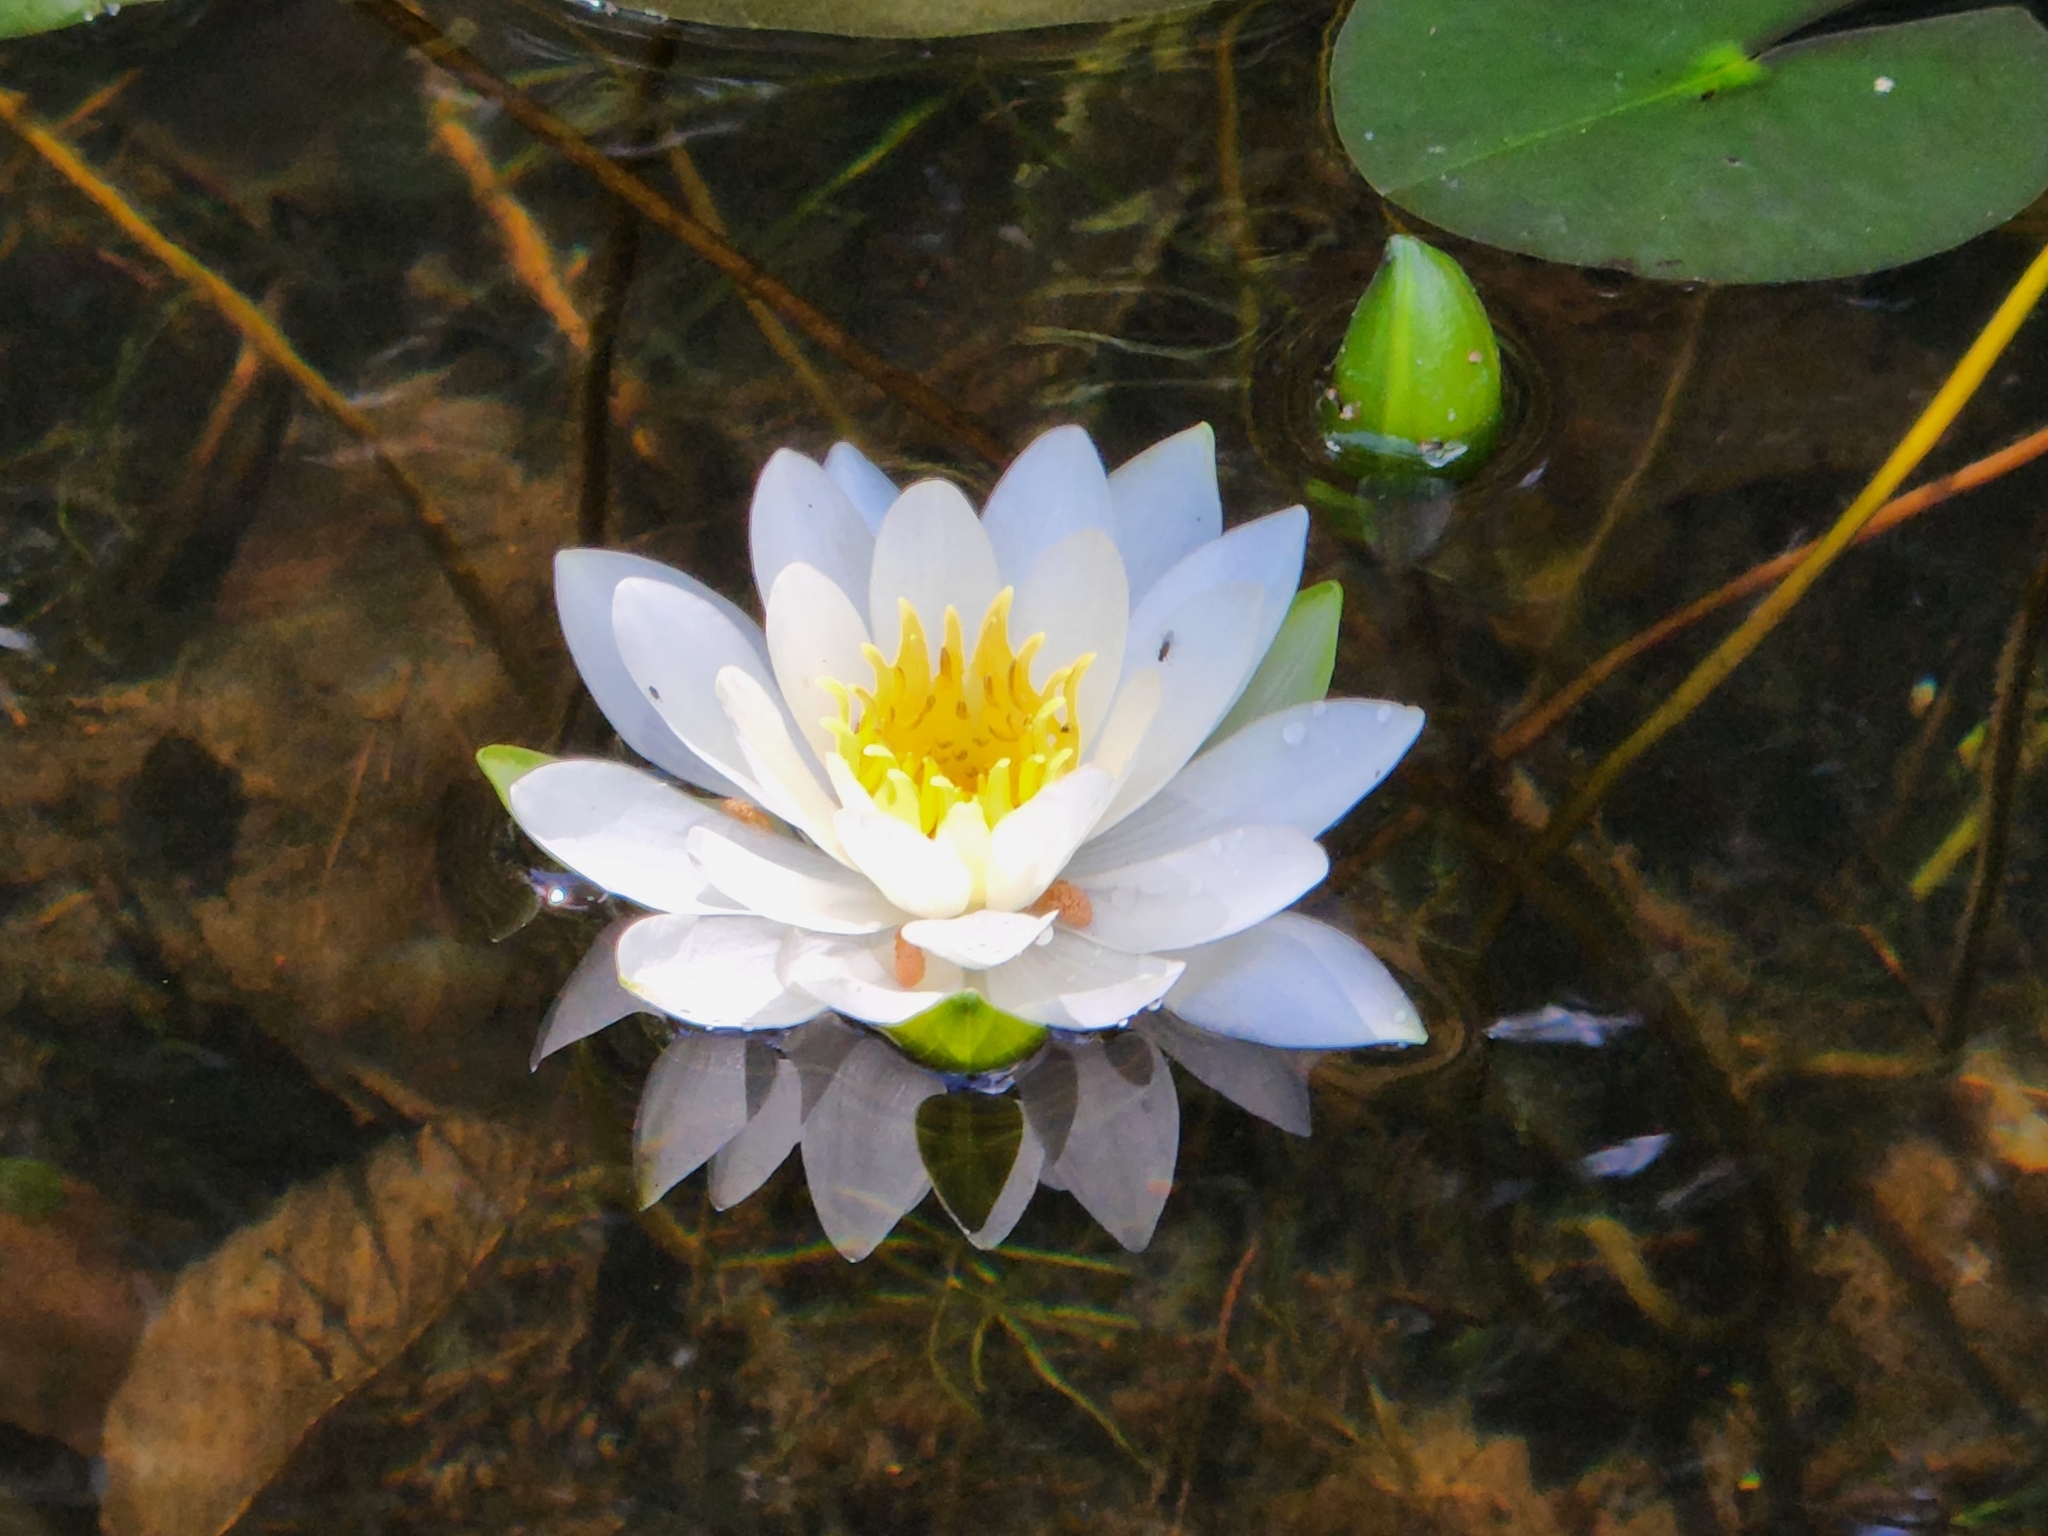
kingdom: Plantae
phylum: Tracheophyta
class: Magnoliopsida
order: Nymphaeales
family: Nymphaeaceae
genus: Nymphaea
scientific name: Nymphaea odorata
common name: Fragrant water-lily
